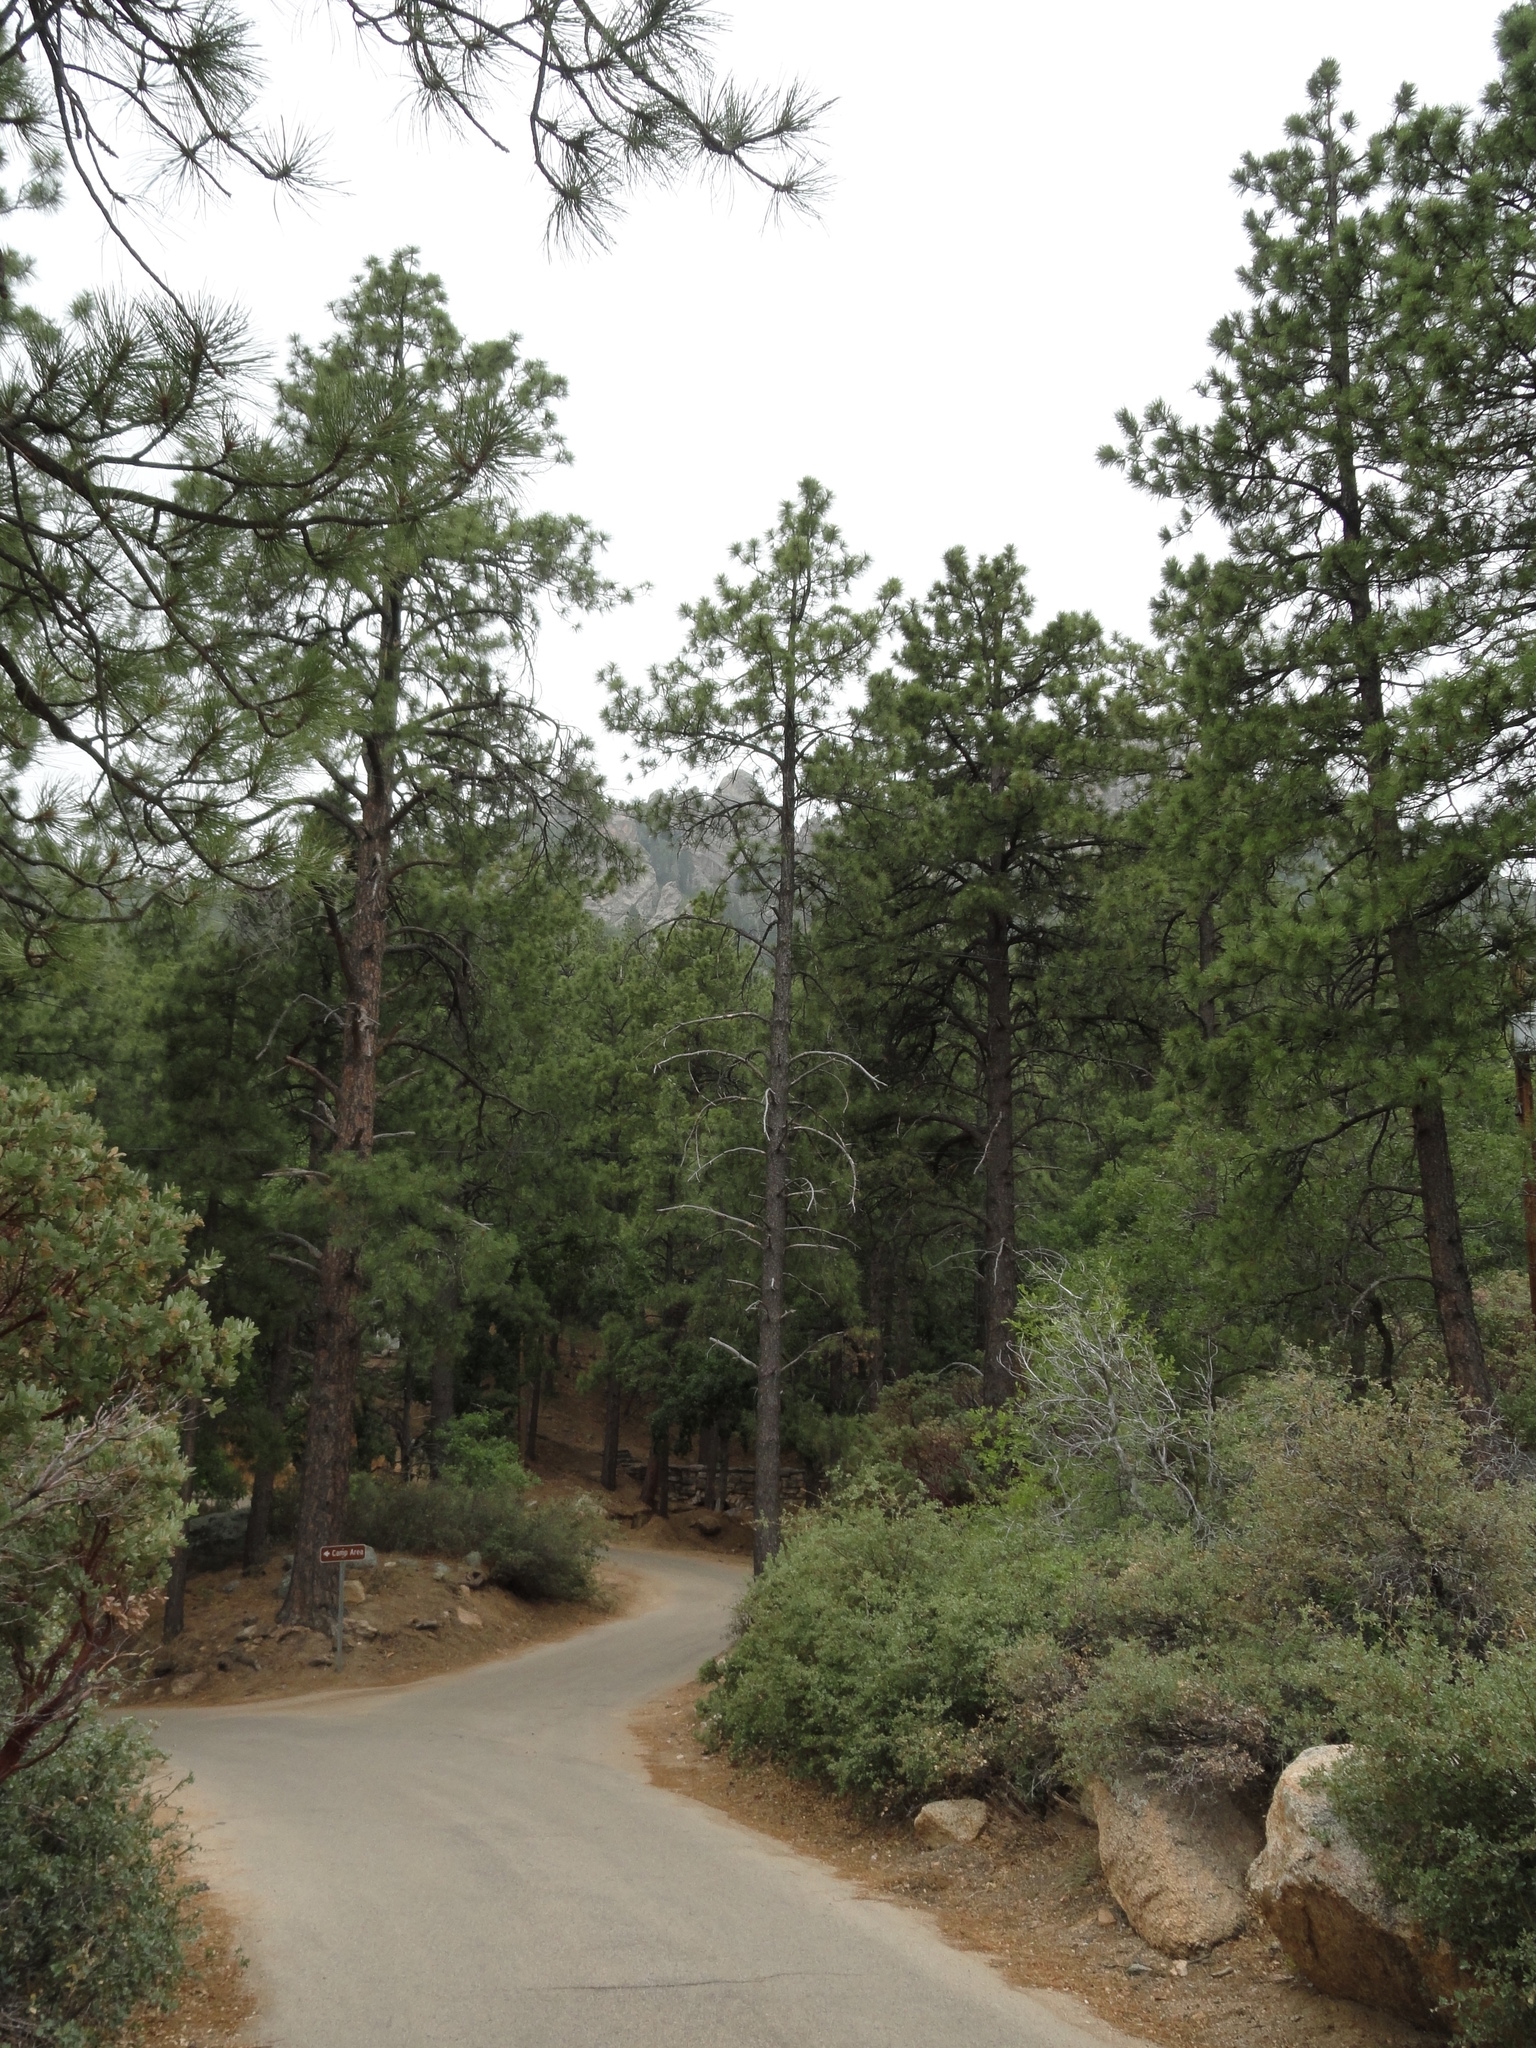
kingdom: Plantae
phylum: Tracheophyta
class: Pinopsida
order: Pinales
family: Pinaceae
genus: Pinus
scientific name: Pinus ponderosa
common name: Western yellow-pine
